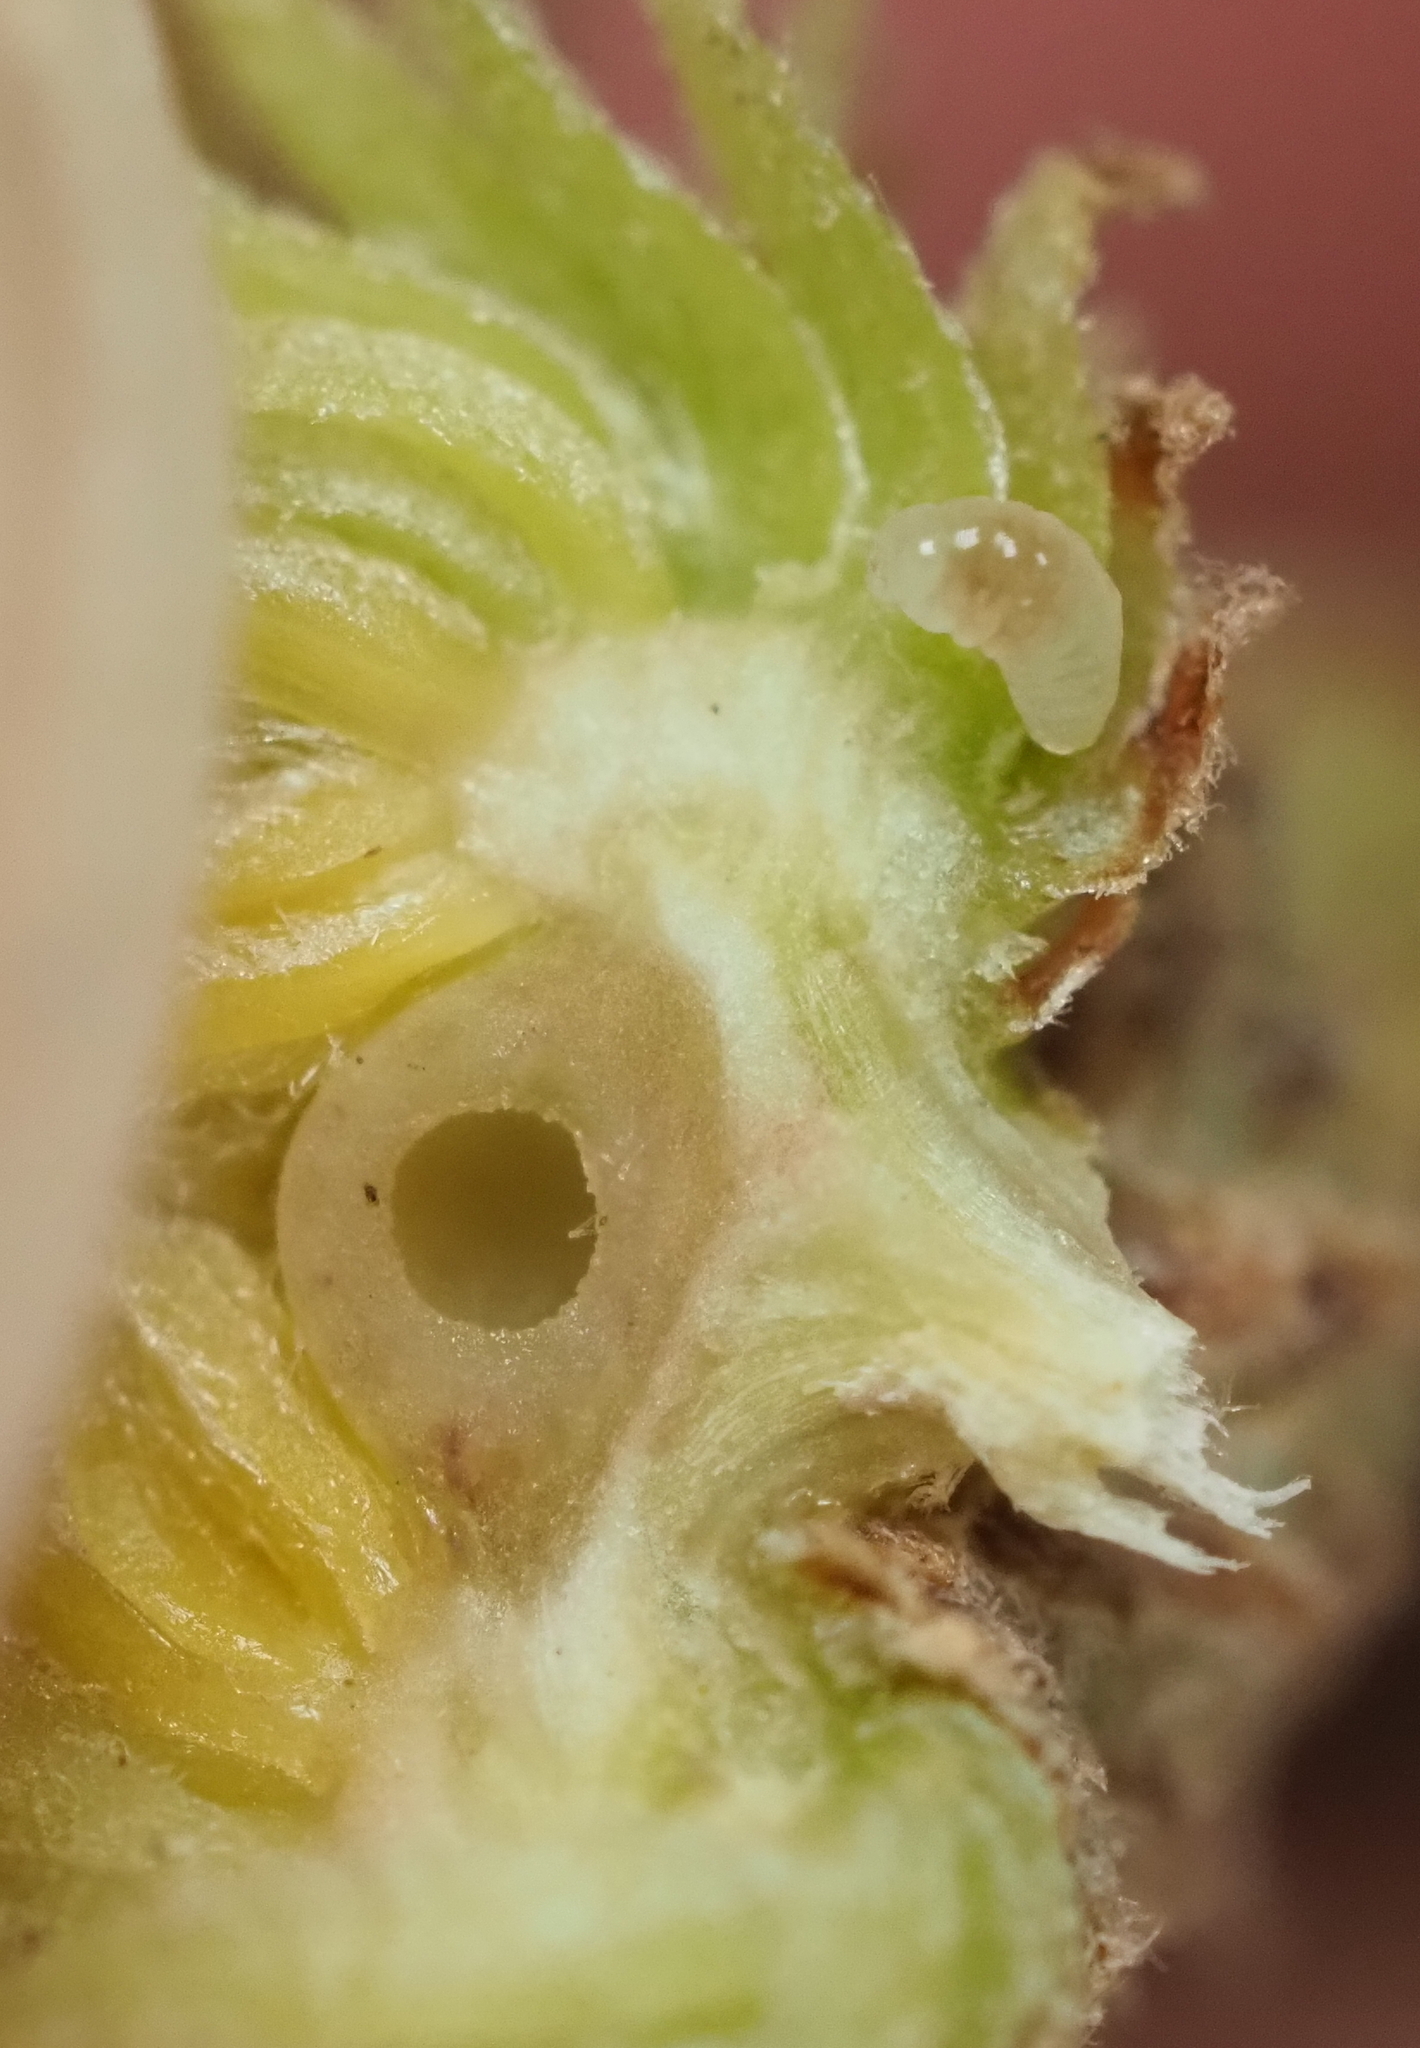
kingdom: Animalia
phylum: Arthropoda
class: Insecta
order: Hymenoptera
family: Cynipidae
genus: Andricus
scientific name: Andricus quercusfoliatus
